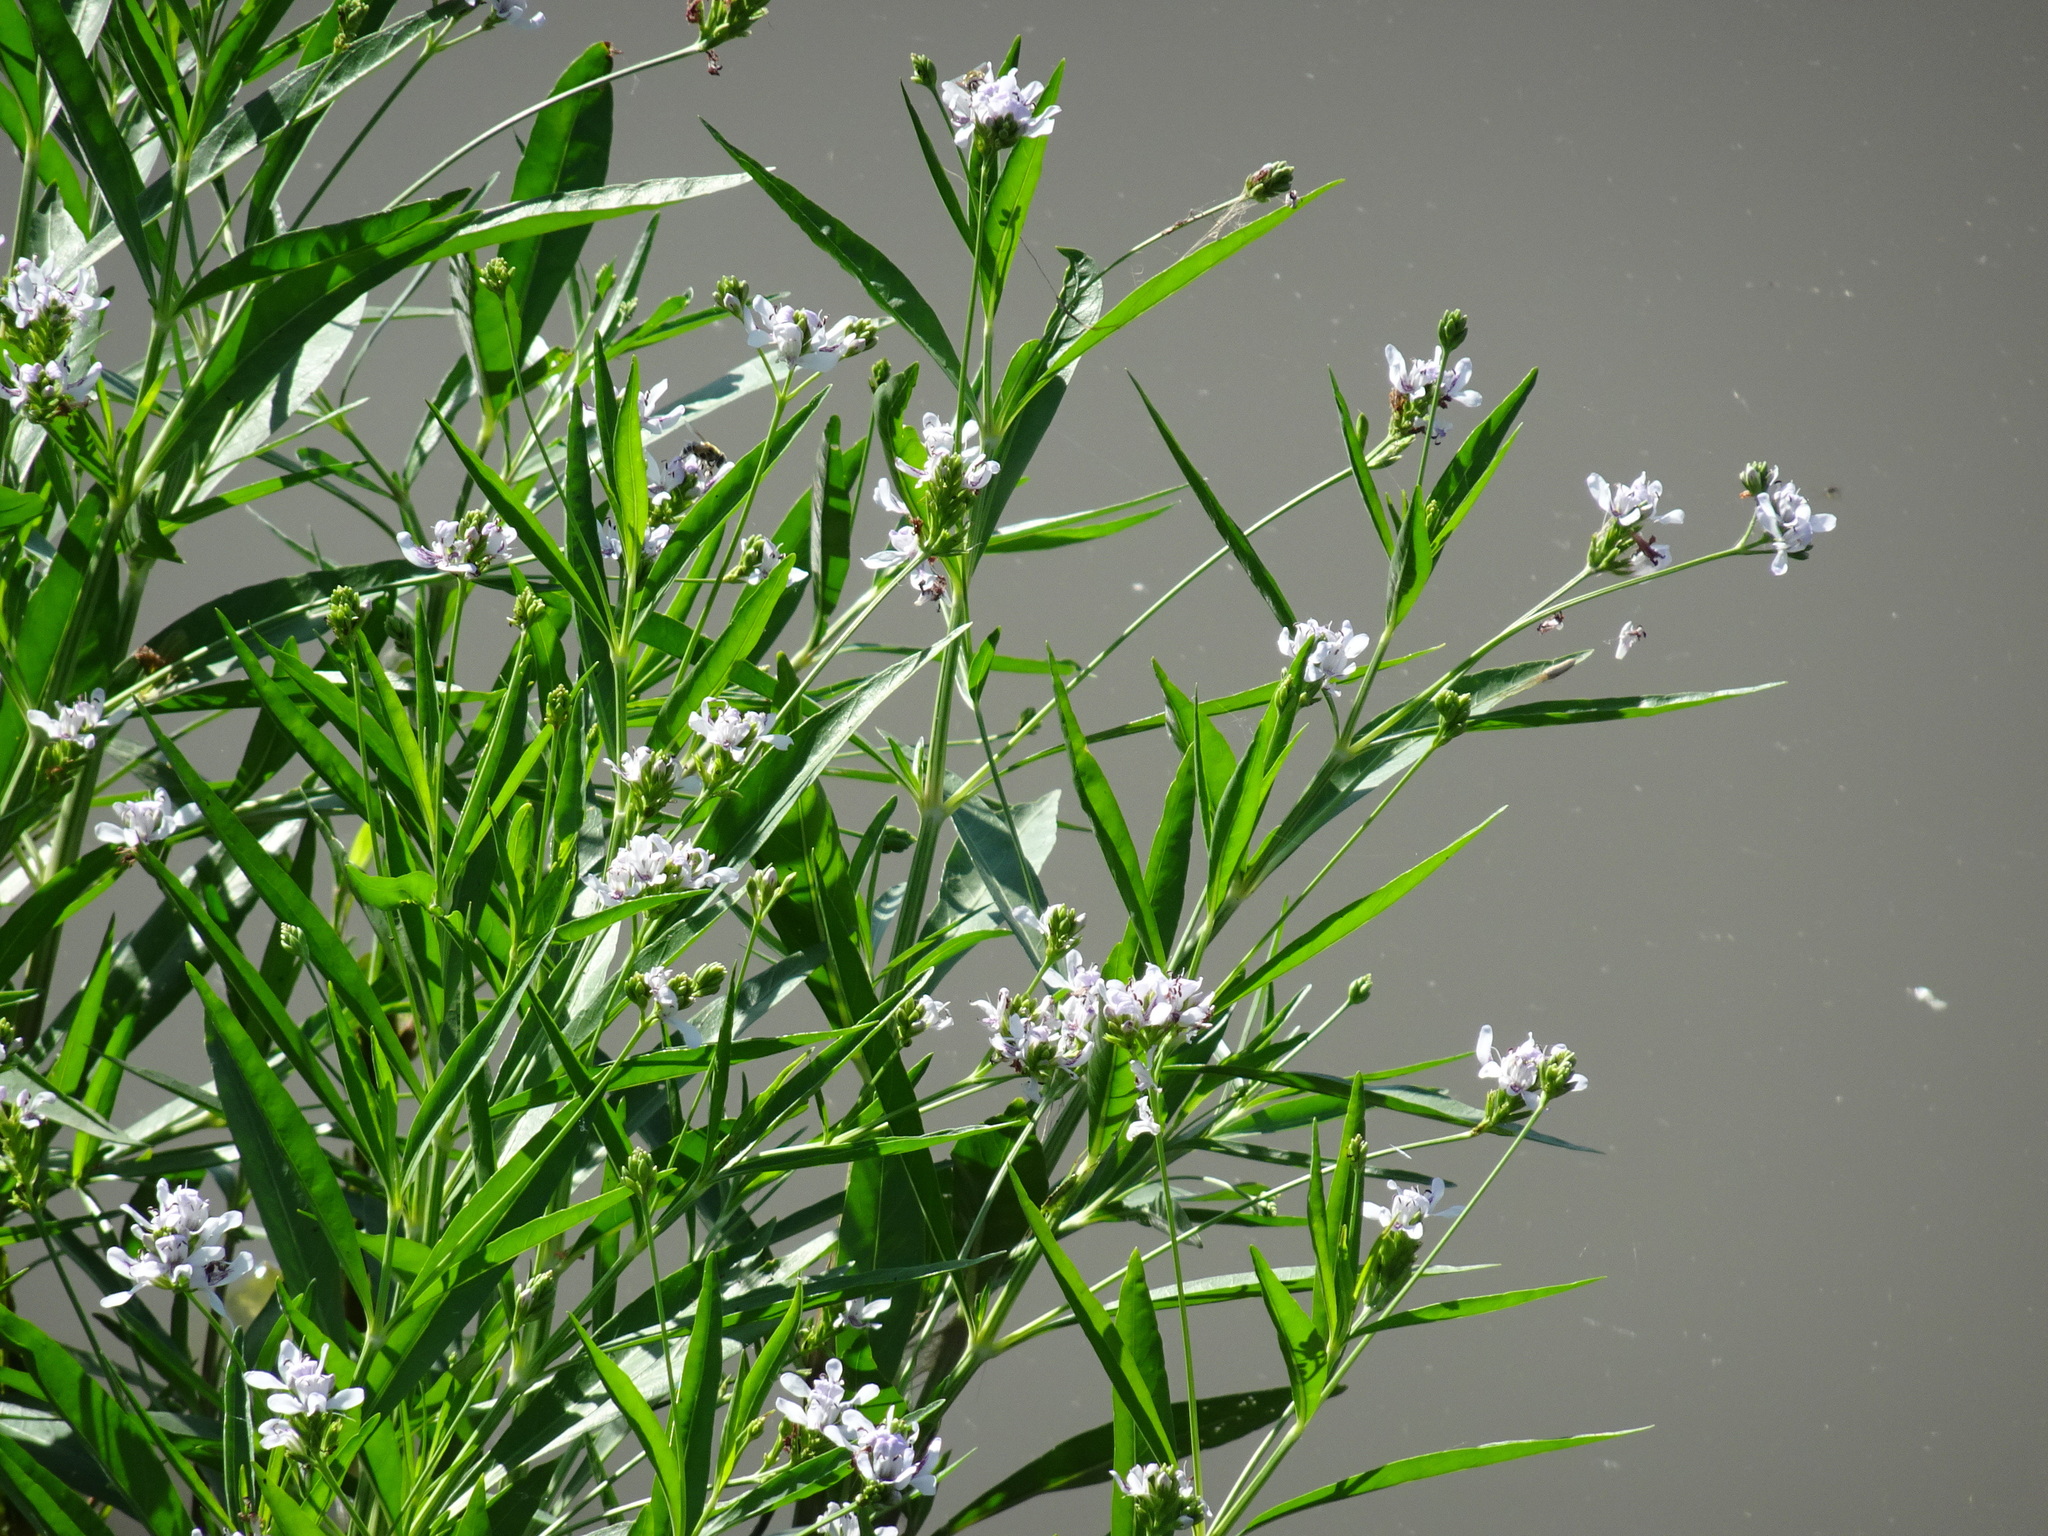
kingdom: Plantae
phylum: Tracheophyta
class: Magnoliopsida
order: Lamiales
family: Acanthaceae
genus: Dianthera
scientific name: Dianthera americana
